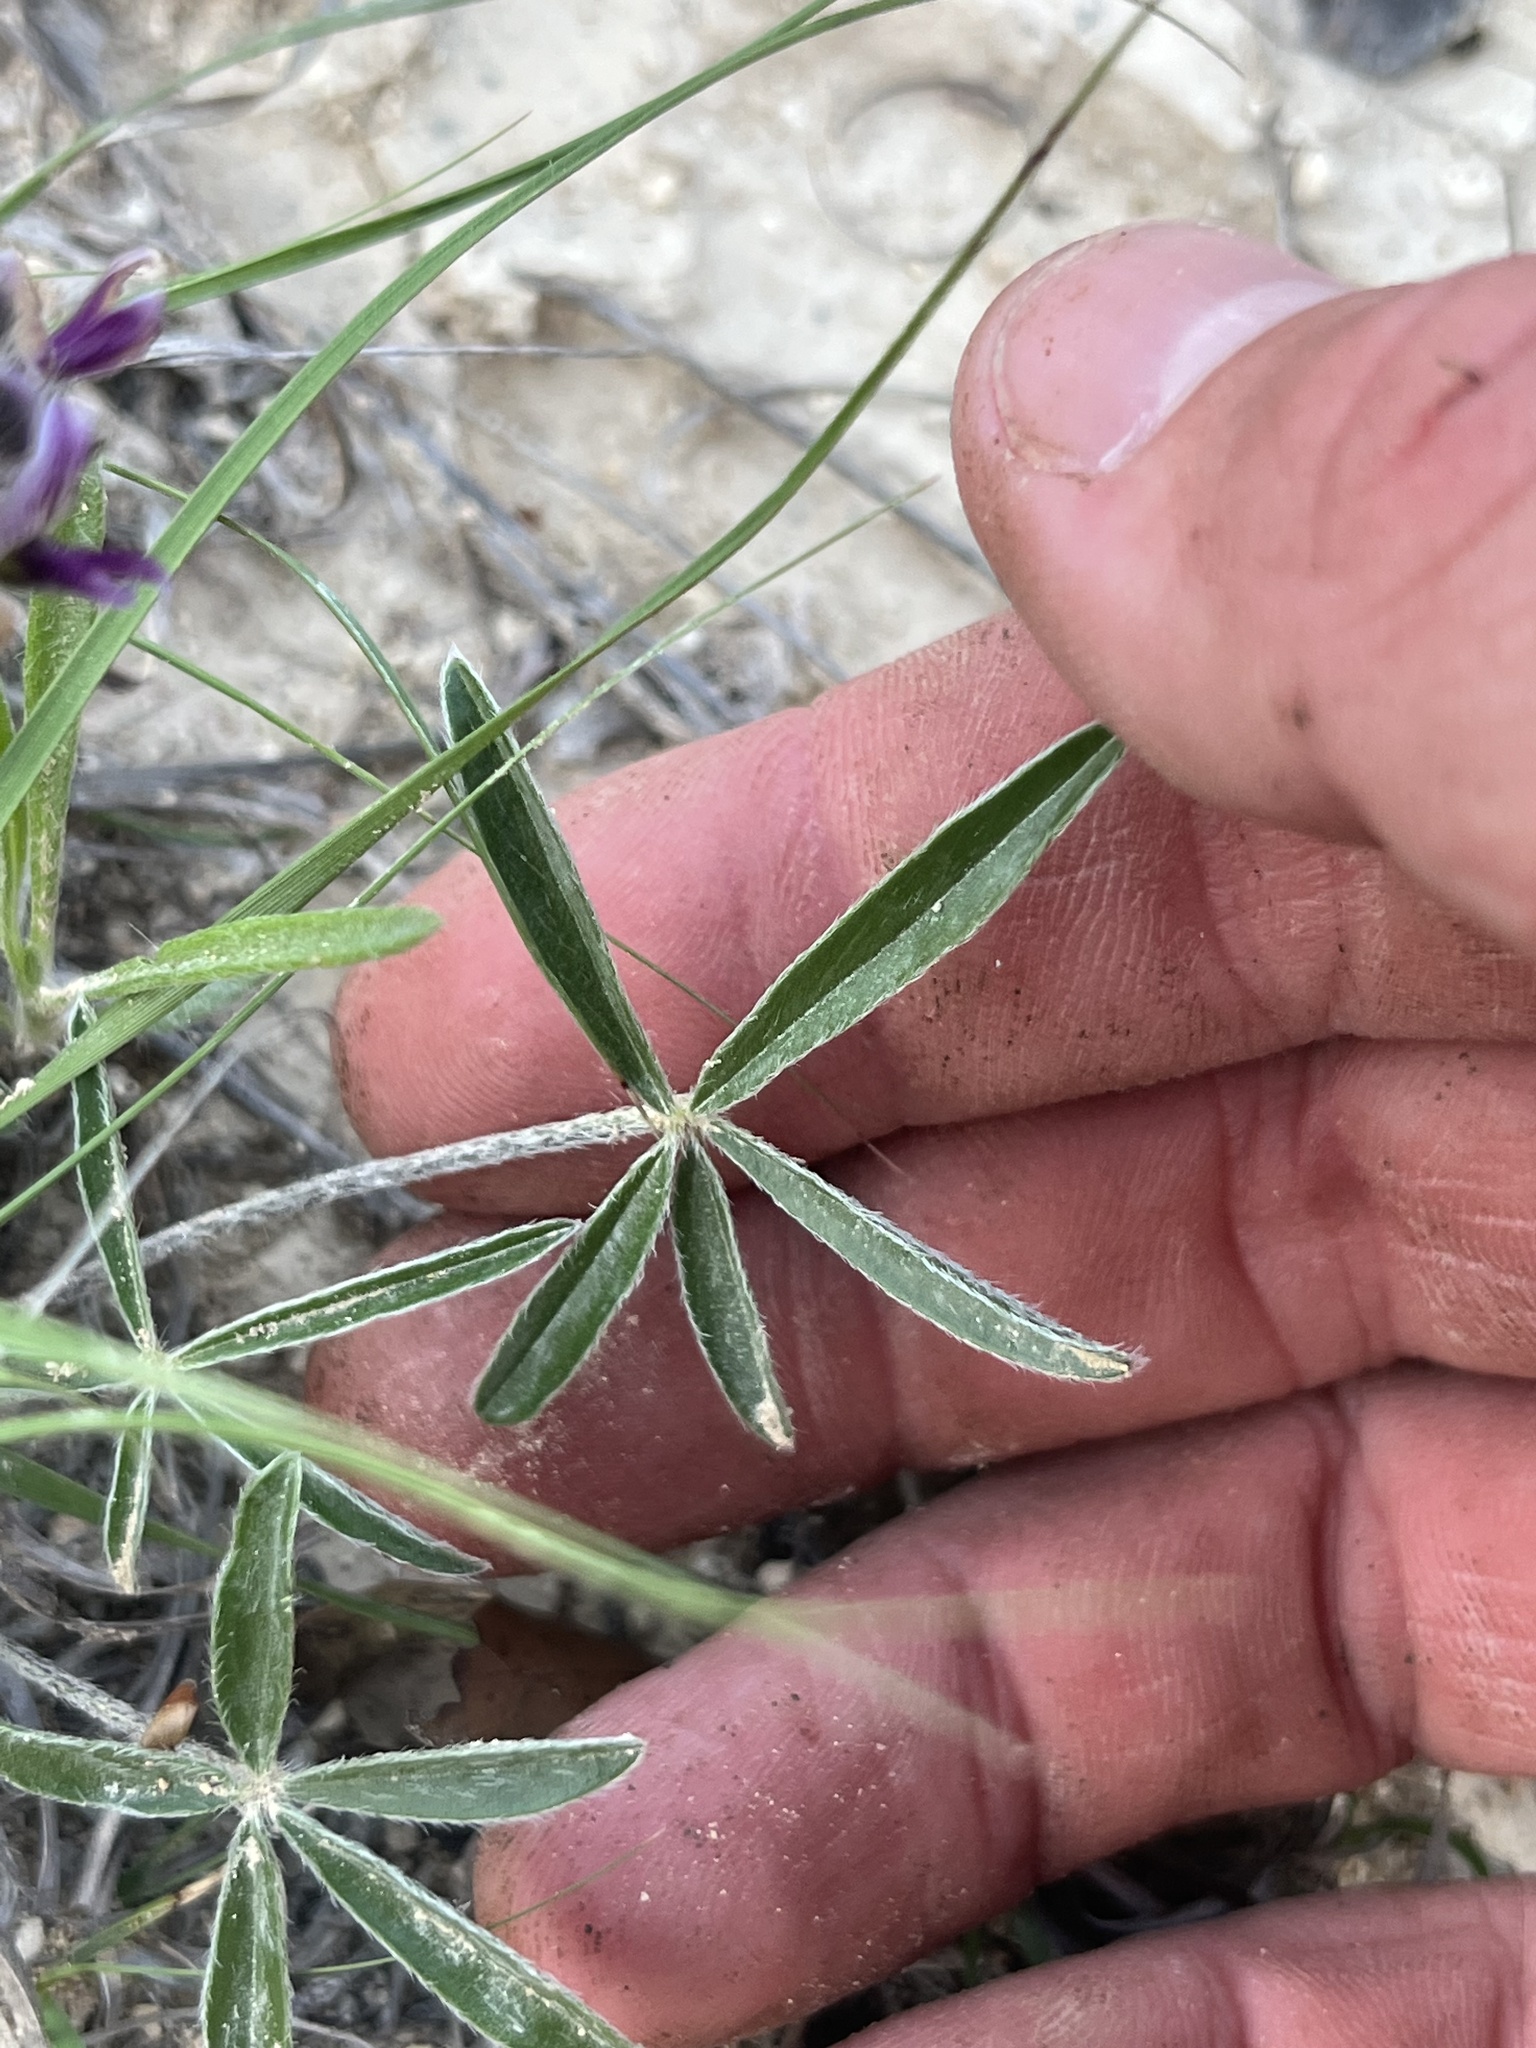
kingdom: Plantae
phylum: Tracheophyta
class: Magnoliopsida
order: Fabales
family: Fabaceae
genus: Pediomelum
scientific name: Pediomelum hypogaeum
